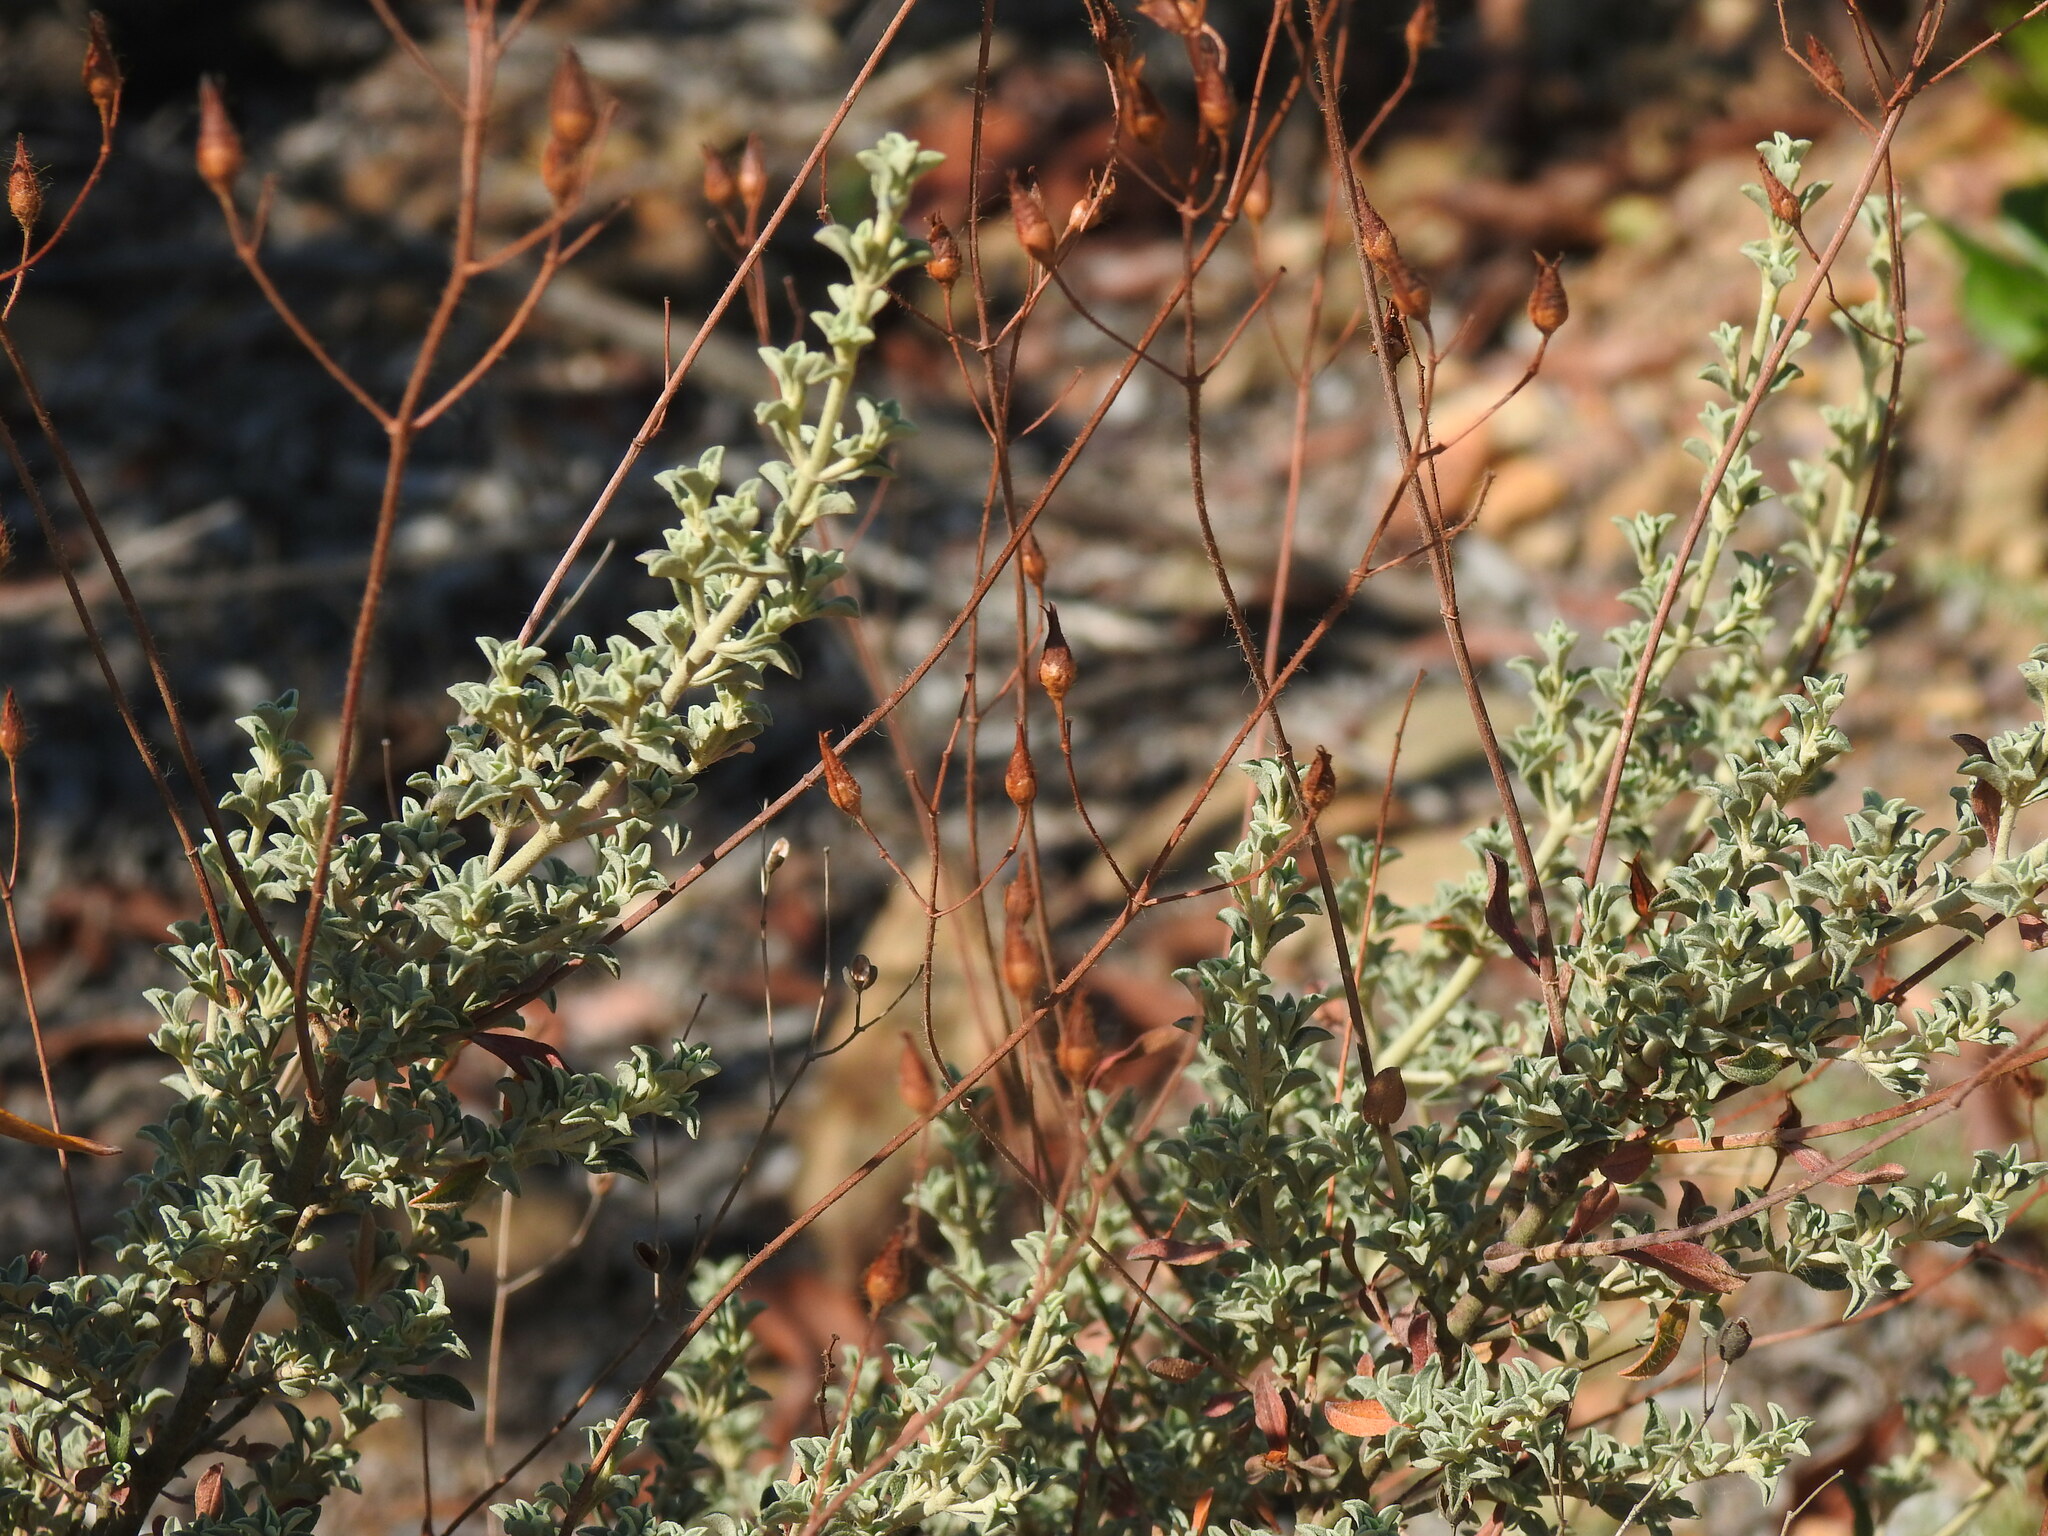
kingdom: Plantae
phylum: Tracheophyta
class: Magnoliopsida
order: Malvales
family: Cistaceae
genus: Cistus
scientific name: Cistus ocymoides
